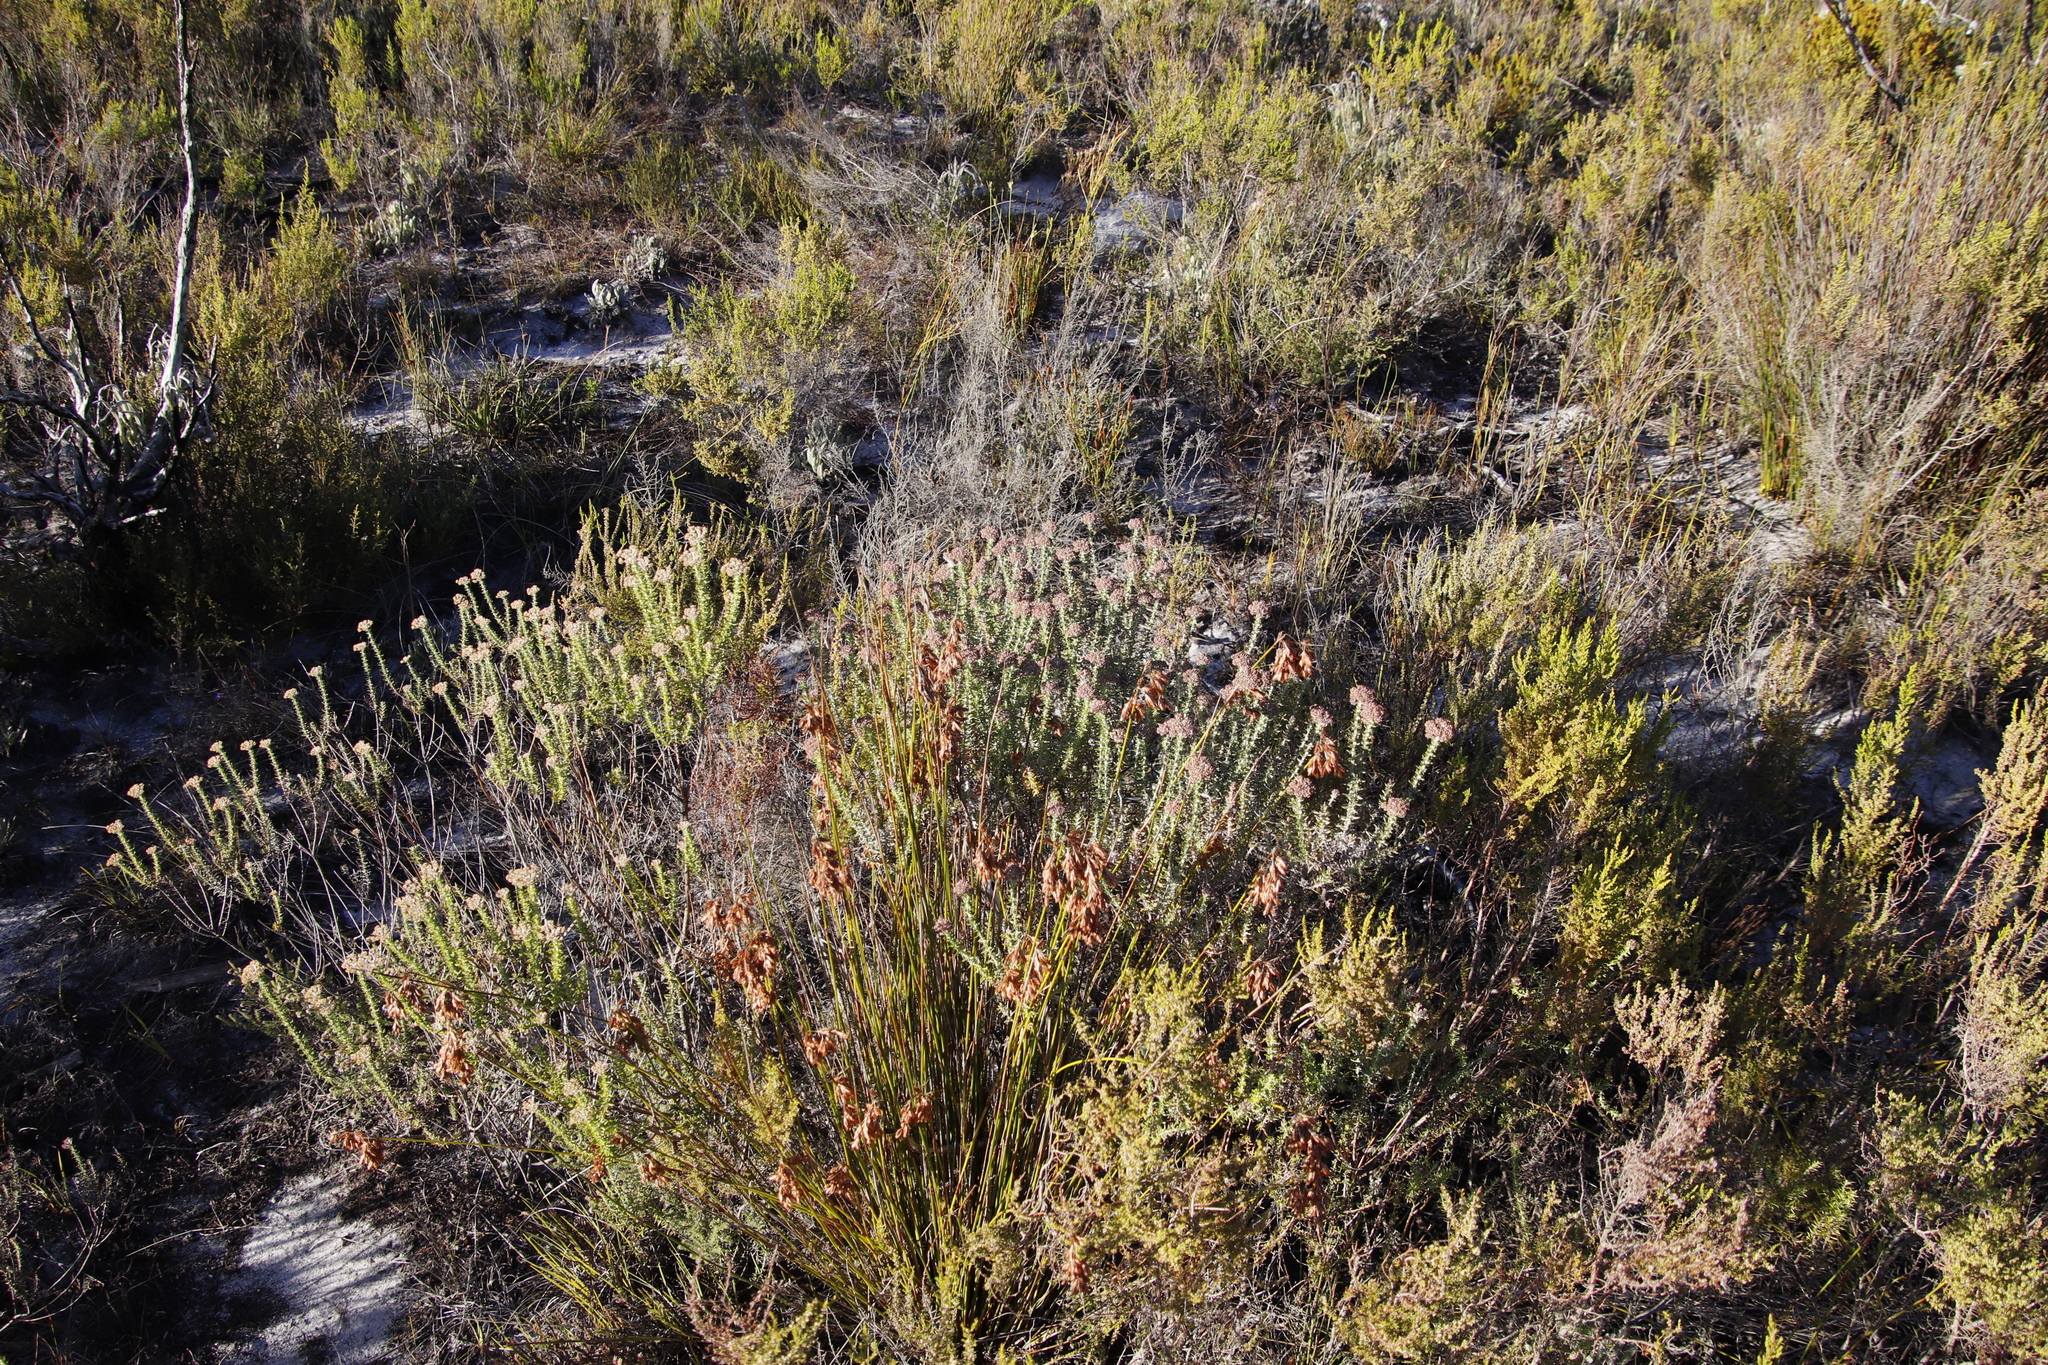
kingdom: Plantae
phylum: Tracheophyta
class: Magnoliopsida
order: Asterales
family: Asteraceae
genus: Metalasia
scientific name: Metalasia densa
